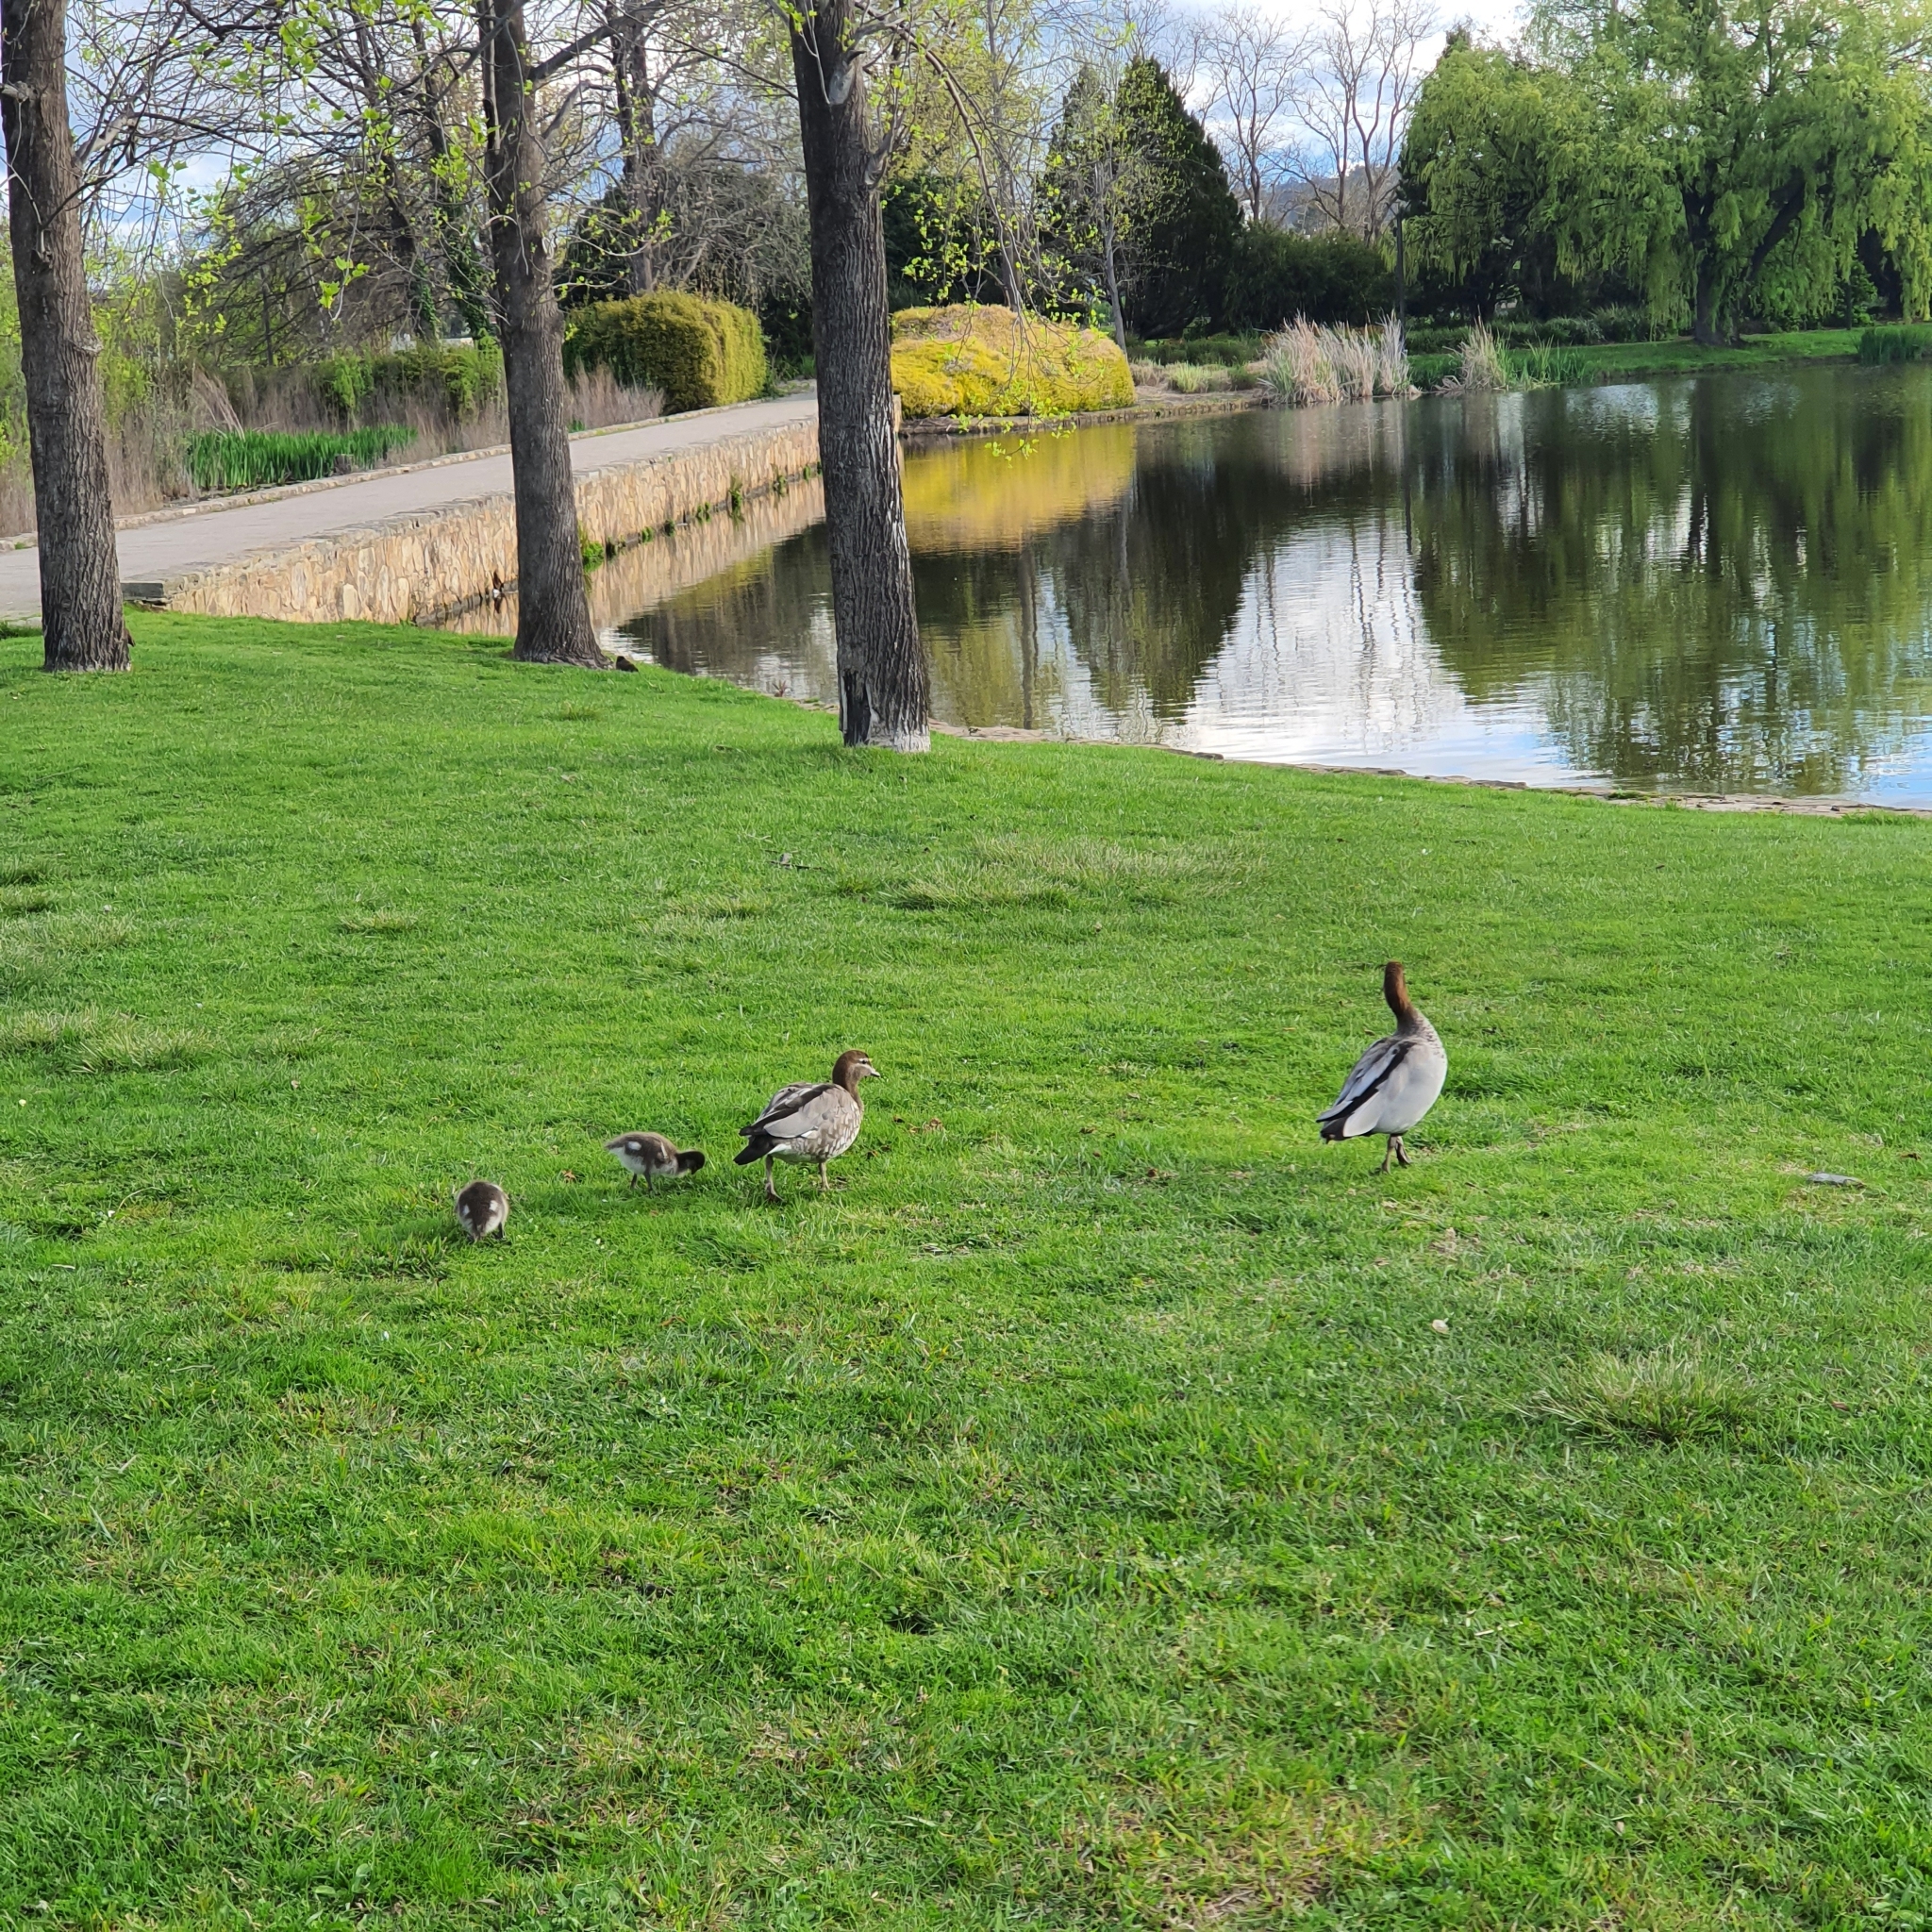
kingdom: Animalia
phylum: Chordata
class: Aves
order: Anseriformes
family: Anatidae
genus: Chenonetta
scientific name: Chenonetta jubata
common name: Maned duck
